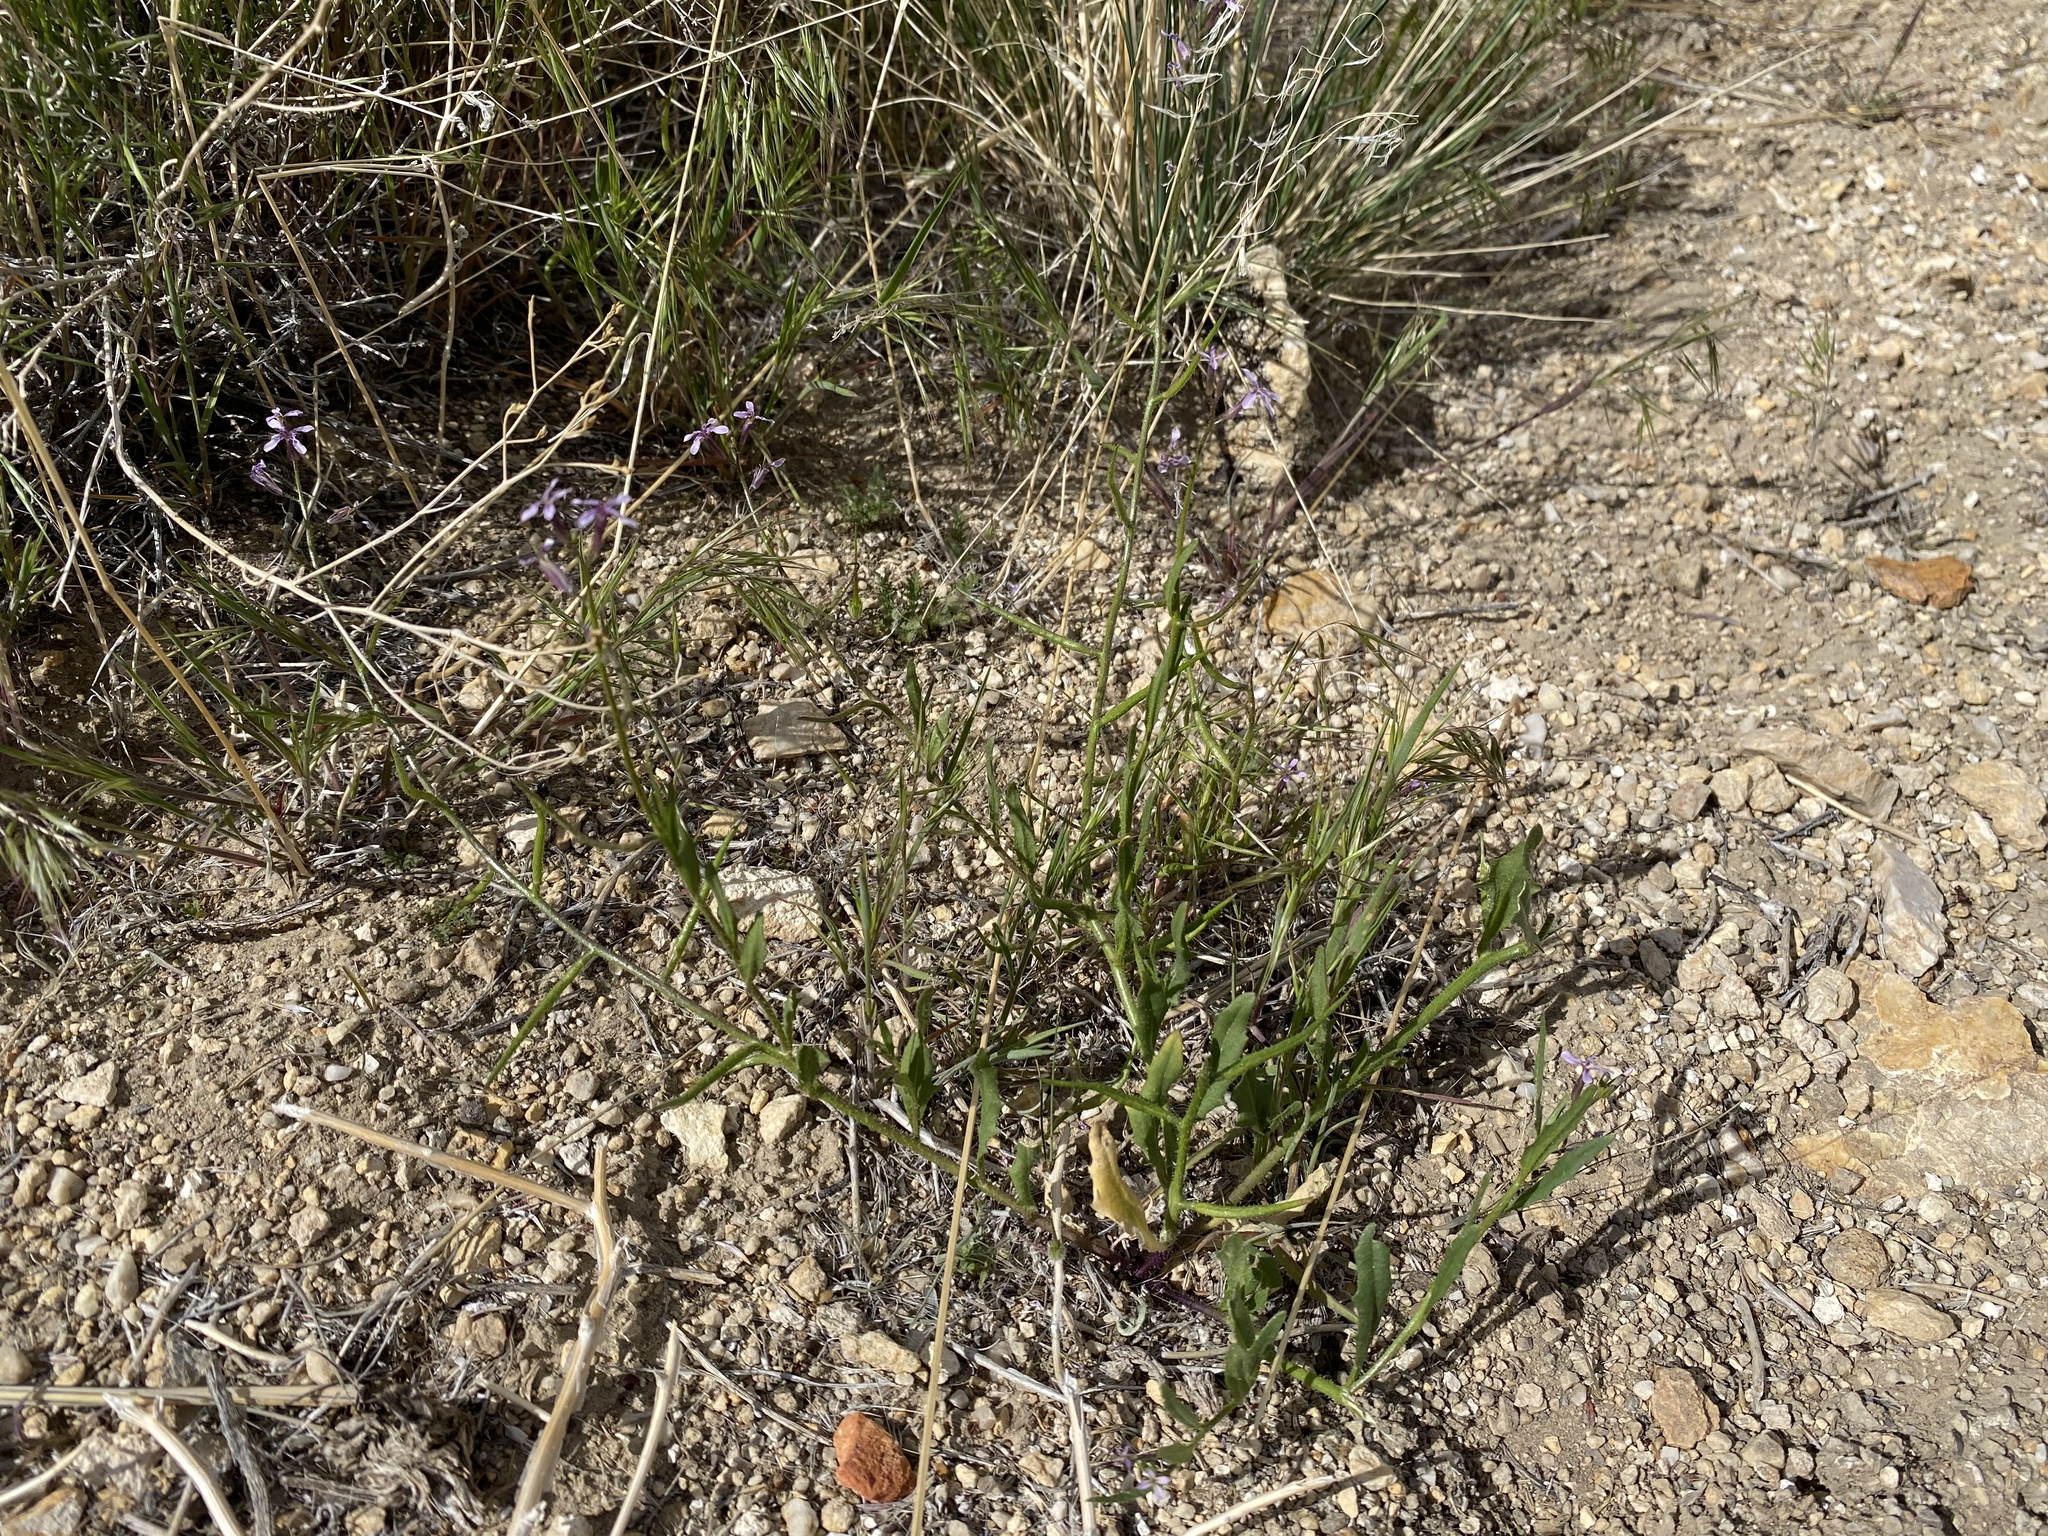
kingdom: Plantae
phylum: Tracheophyta
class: Magnoliopsida
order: Brassicales
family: Brassicaceae
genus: Chorispora
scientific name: Chorispora tenella
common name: Crossflower
